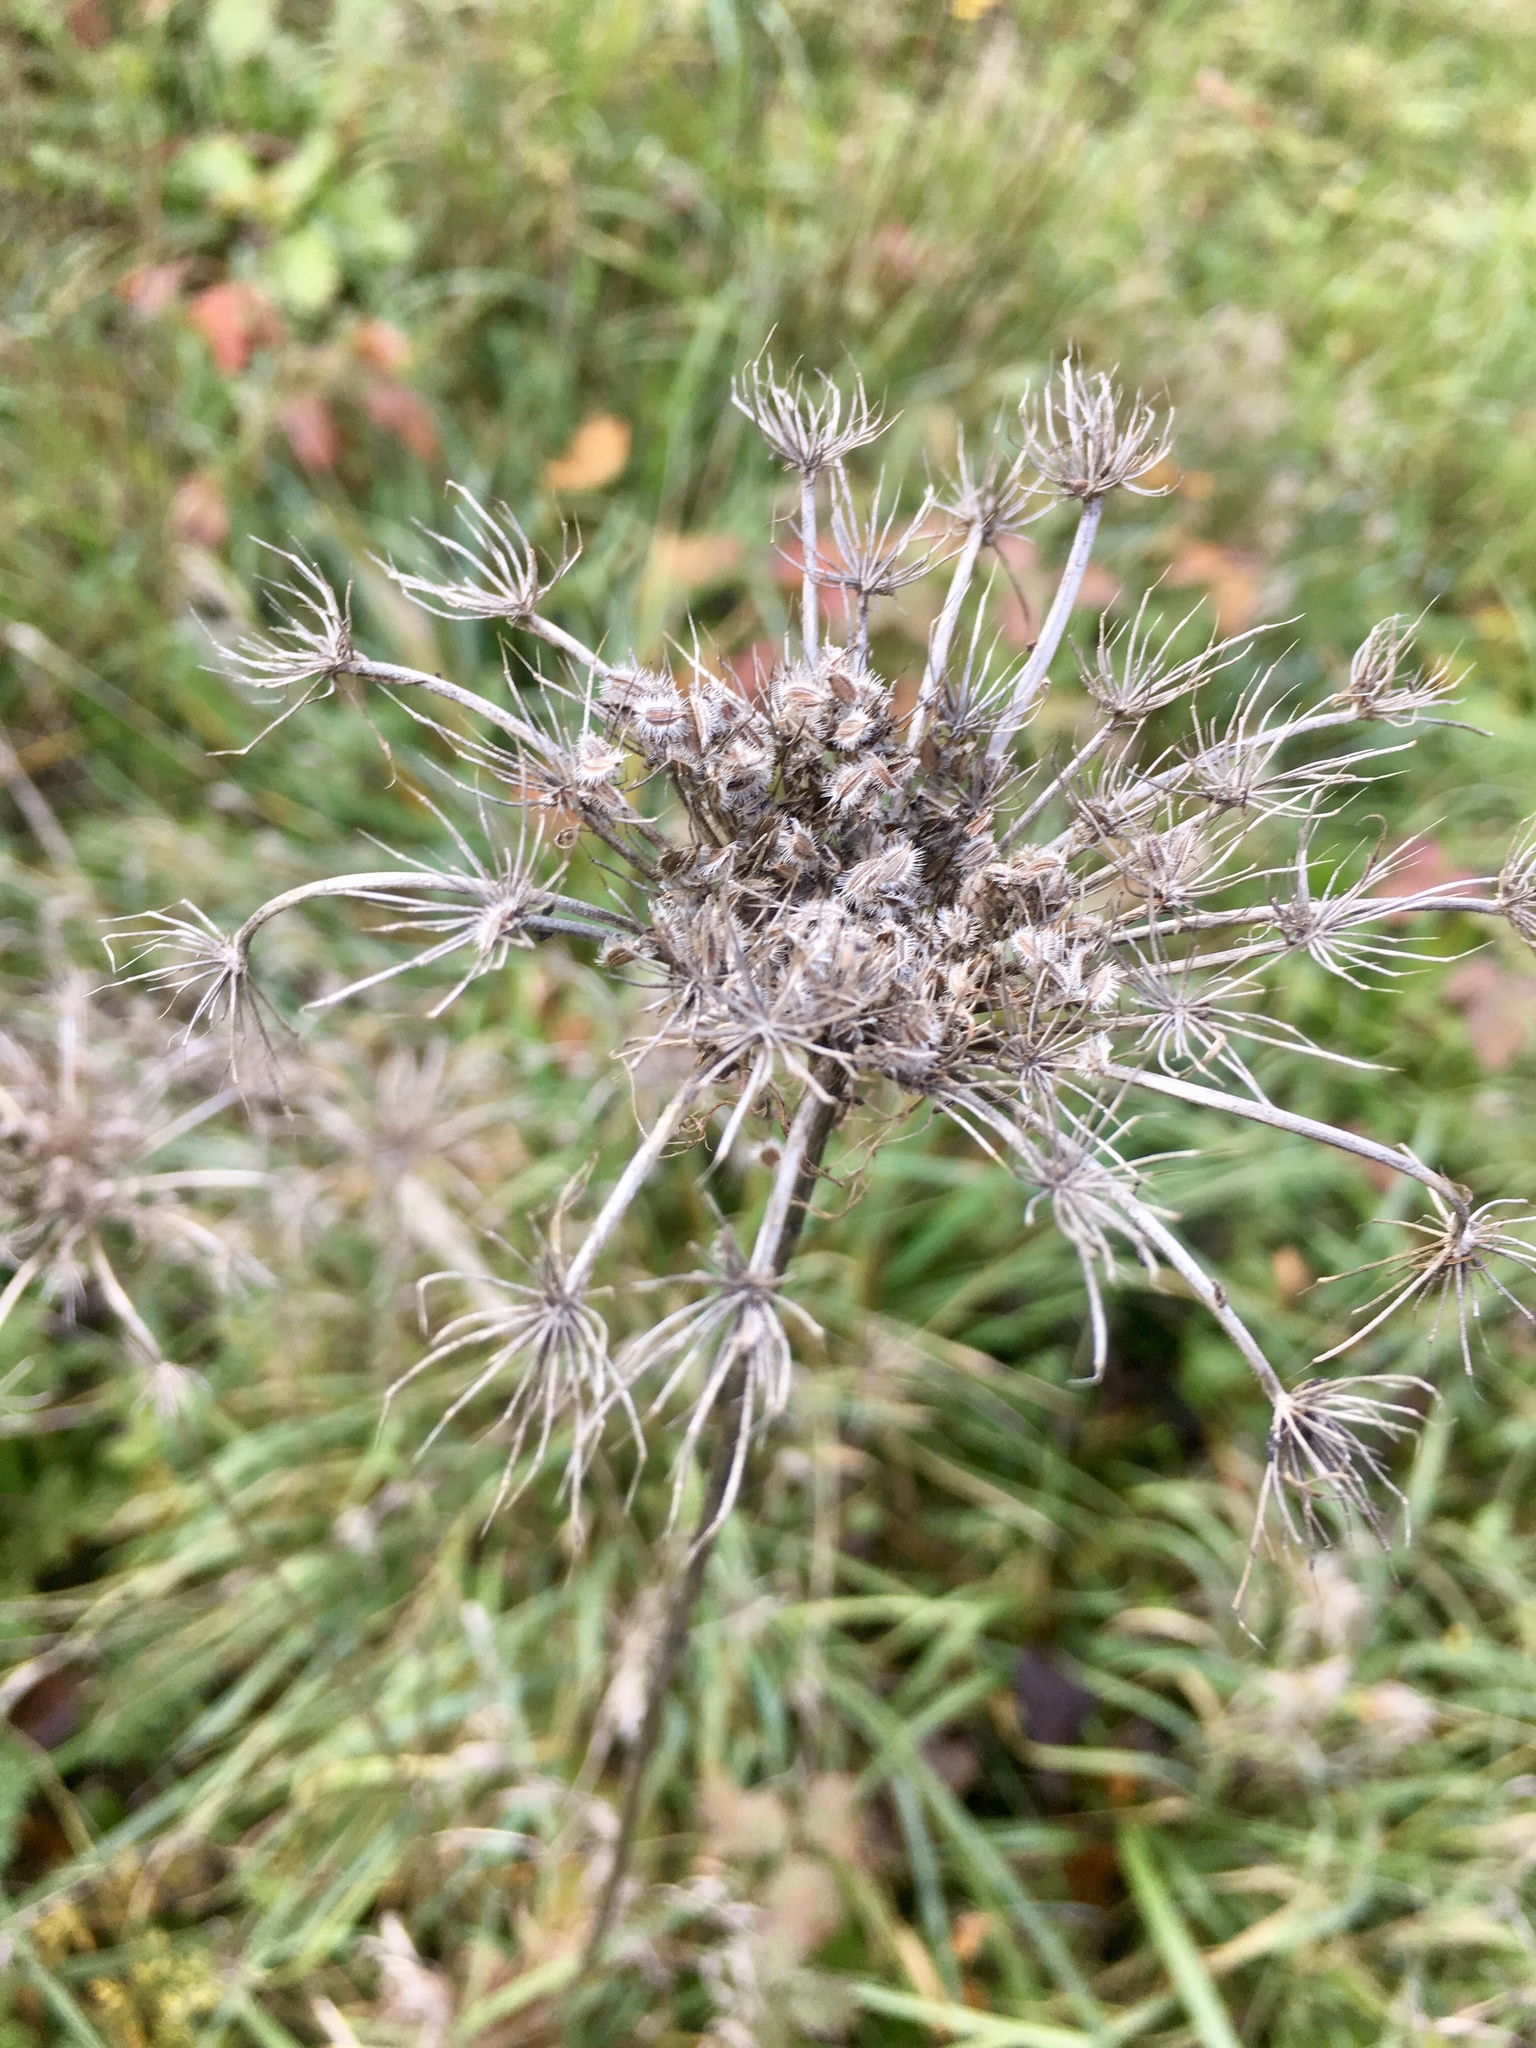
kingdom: Plantae
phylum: Tracheophyta
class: Magnoliopsida
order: Apiales
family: Apiaceae
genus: Daucus
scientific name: Daucus carota
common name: Wild carrot
